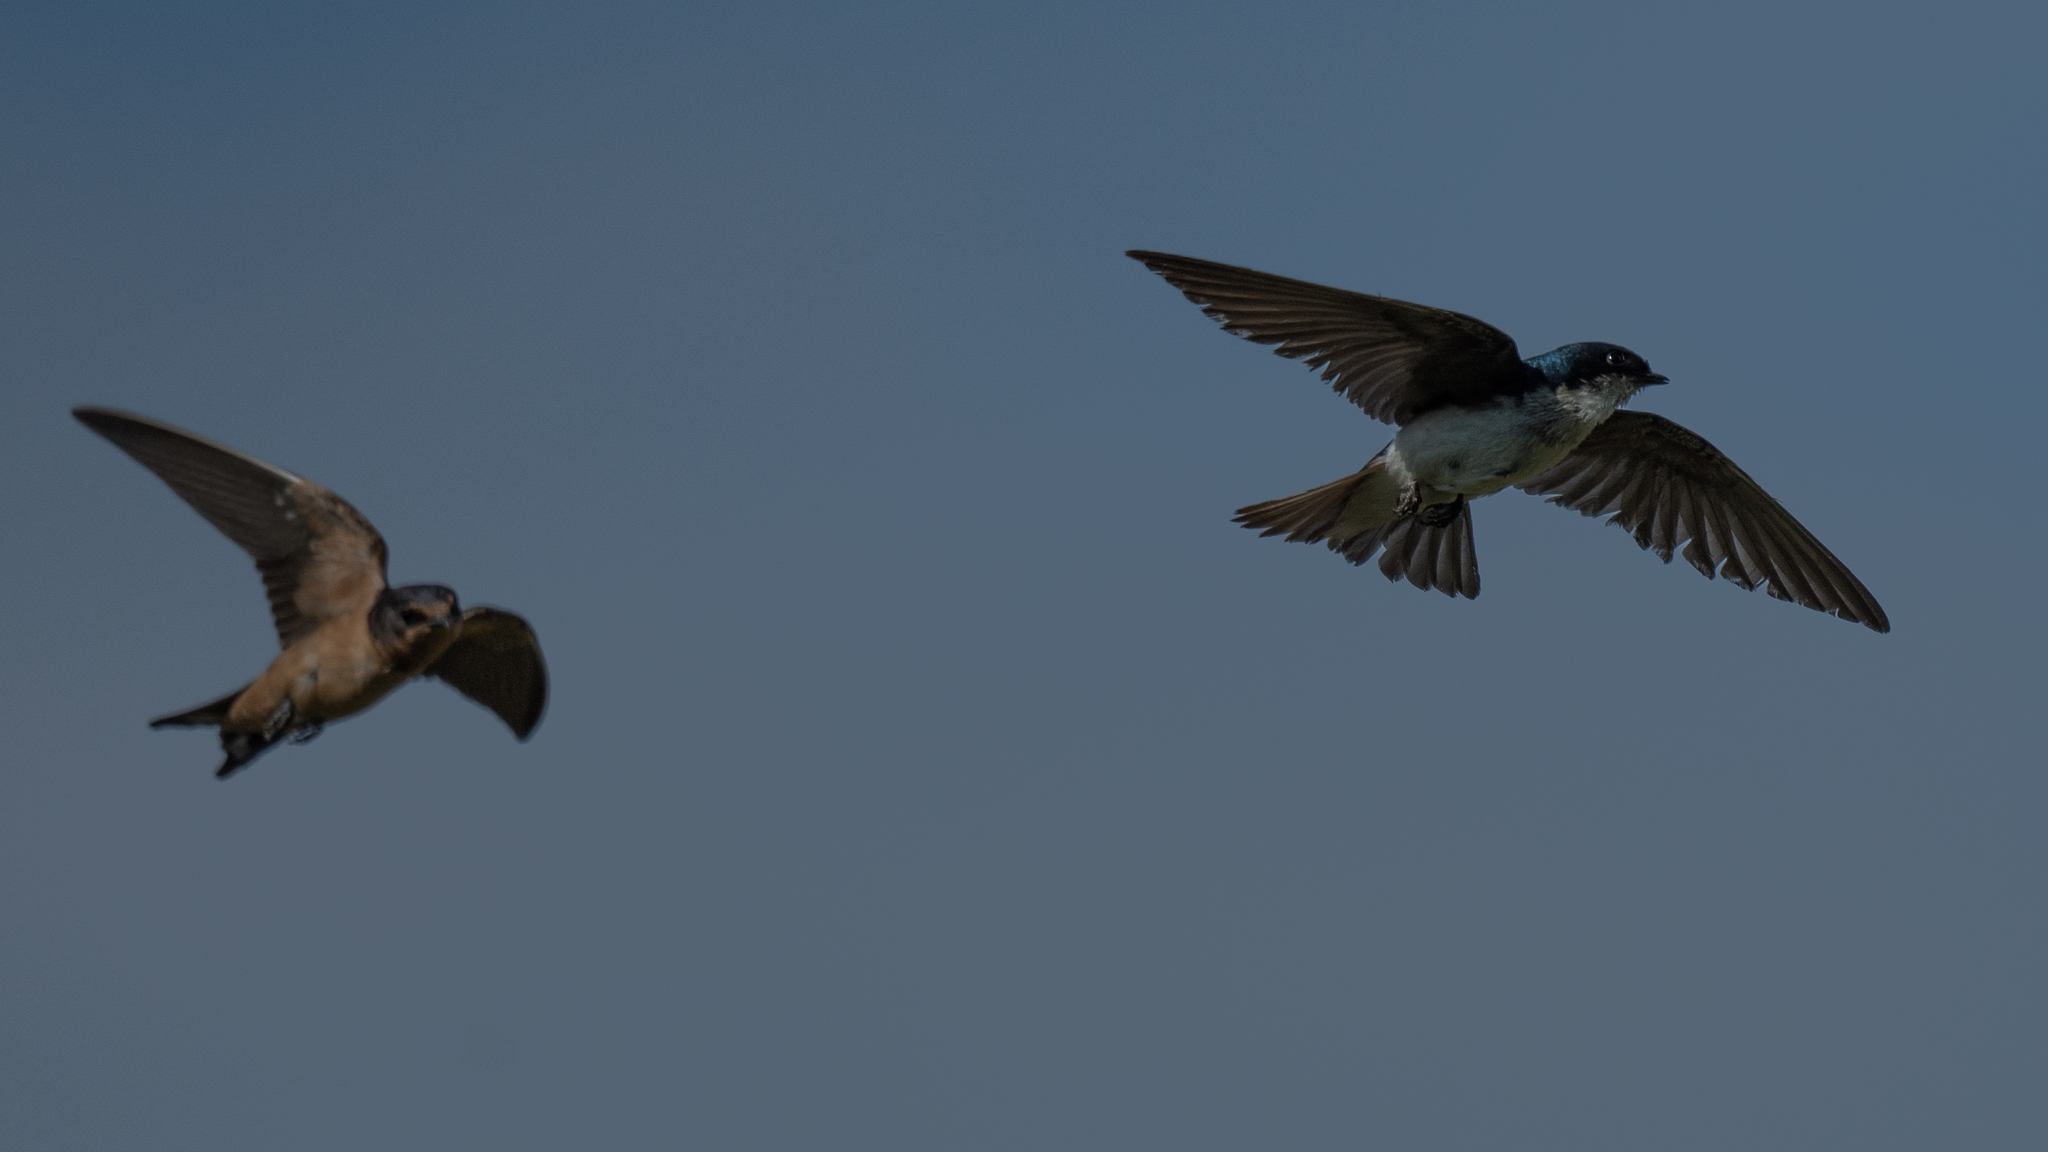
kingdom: Animalia
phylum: Chordata
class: Aves
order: Passeriformes
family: Hirundinidae
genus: Tachycineta
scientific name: Tachycineta bicolor
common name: Tree swallow
